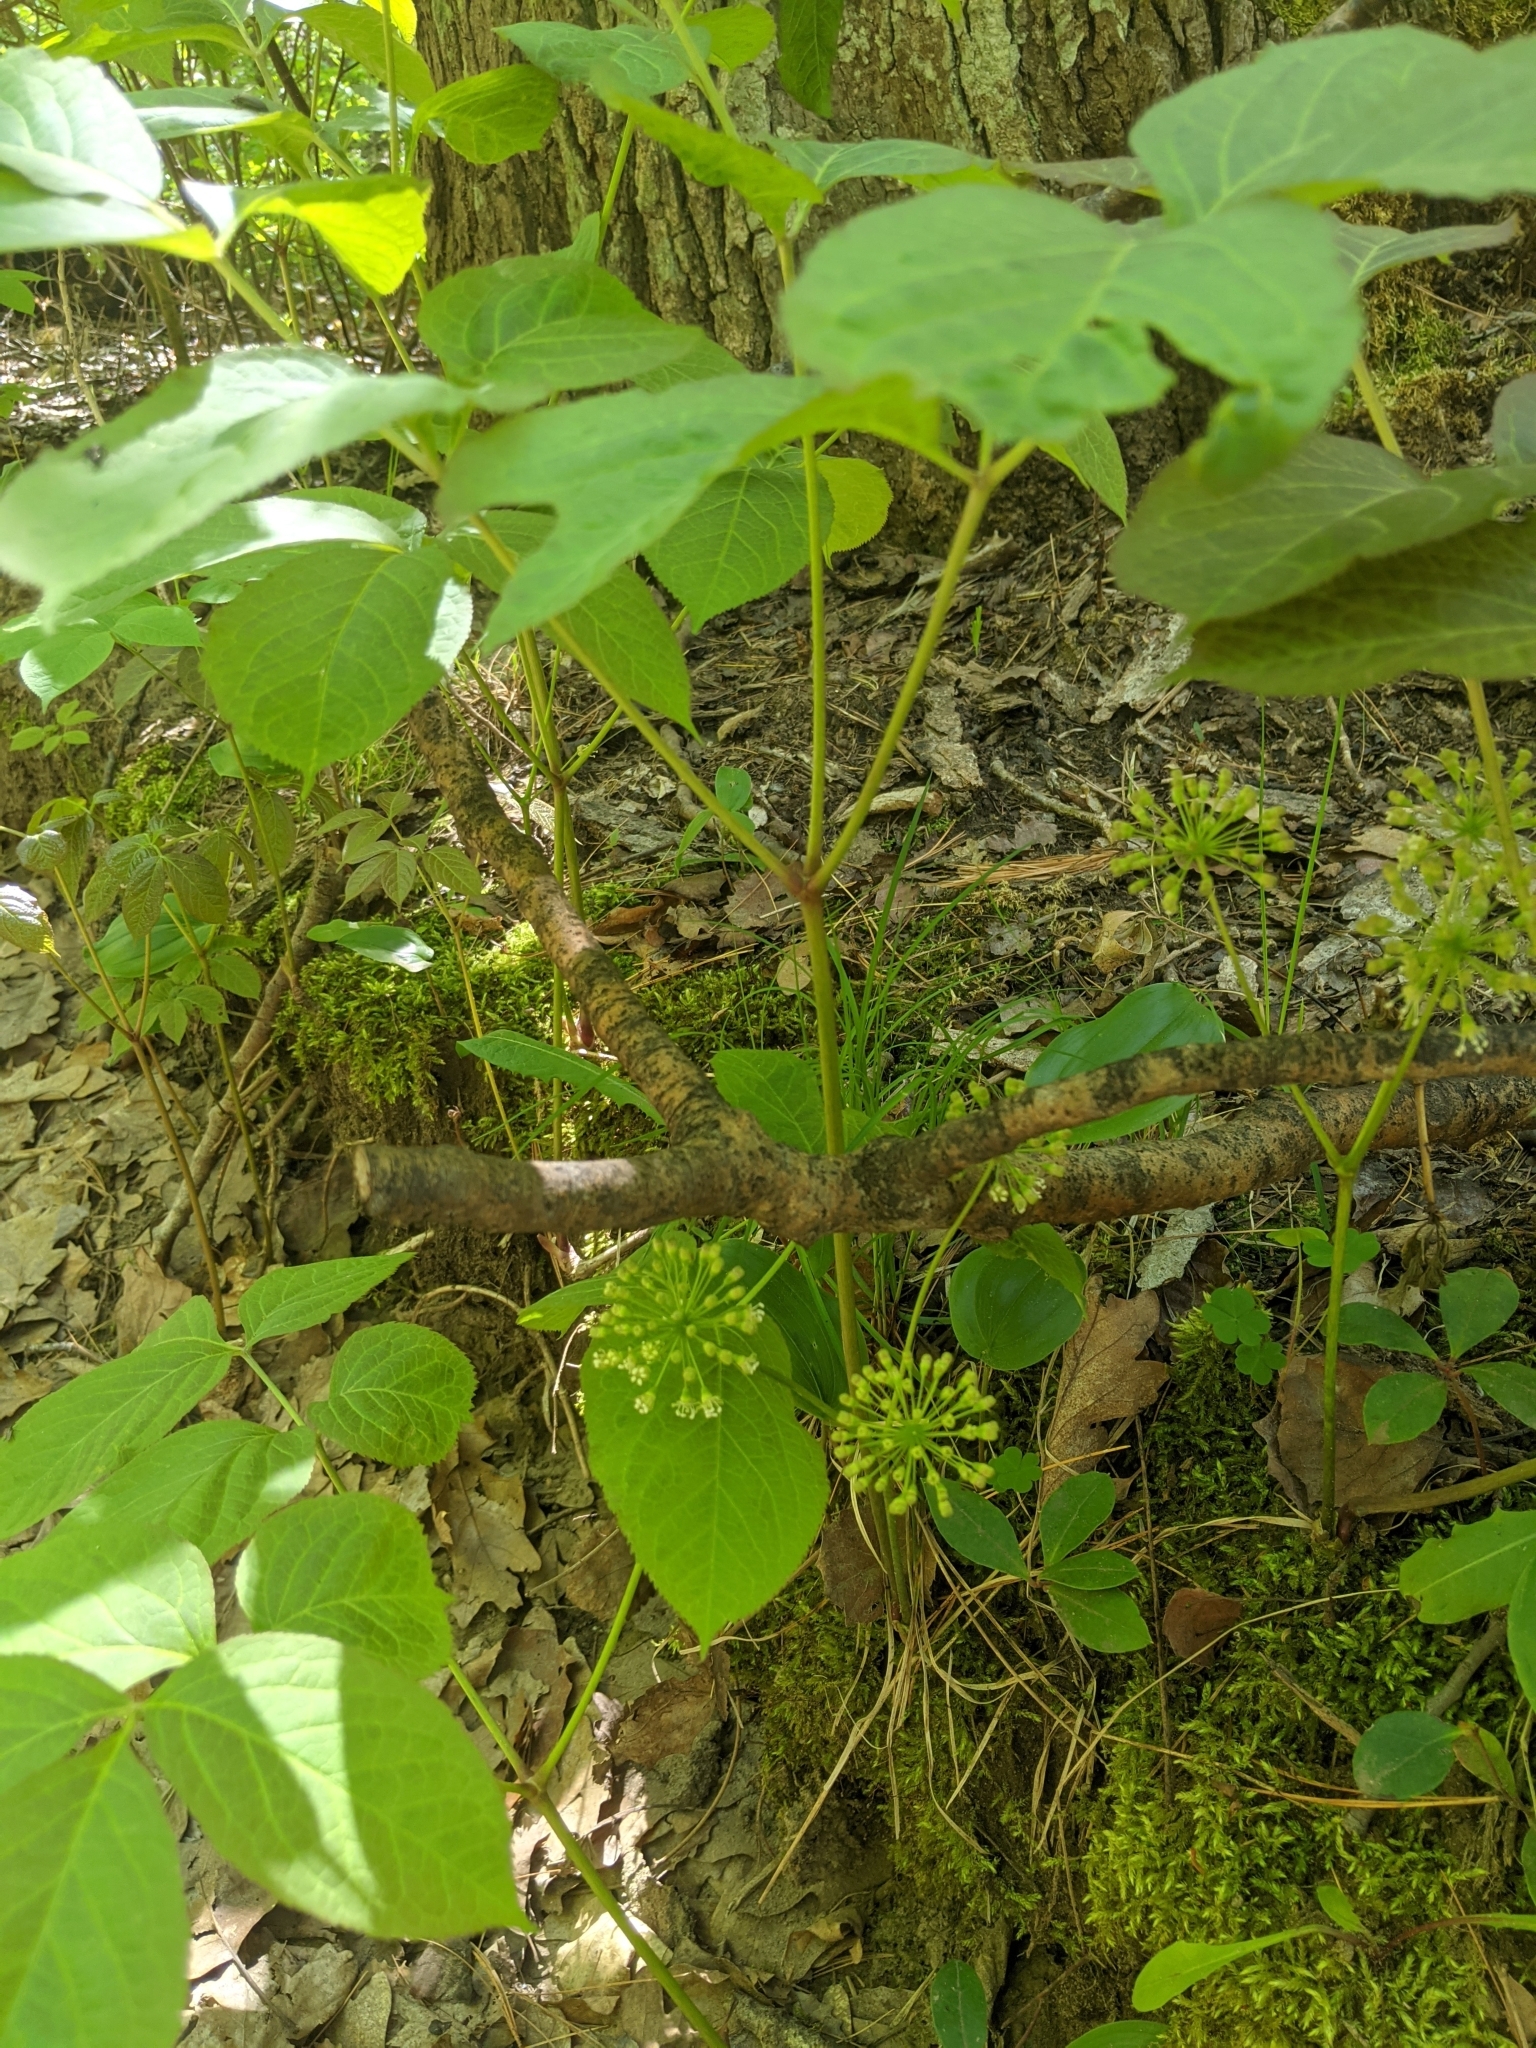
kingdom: Plantae
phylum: Tracheophyta
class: Magnoliopsida
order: Apiales
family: Araliaceae
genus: Aralia
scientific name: Aralia nudicaulis
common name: Wild sarsaparilla
